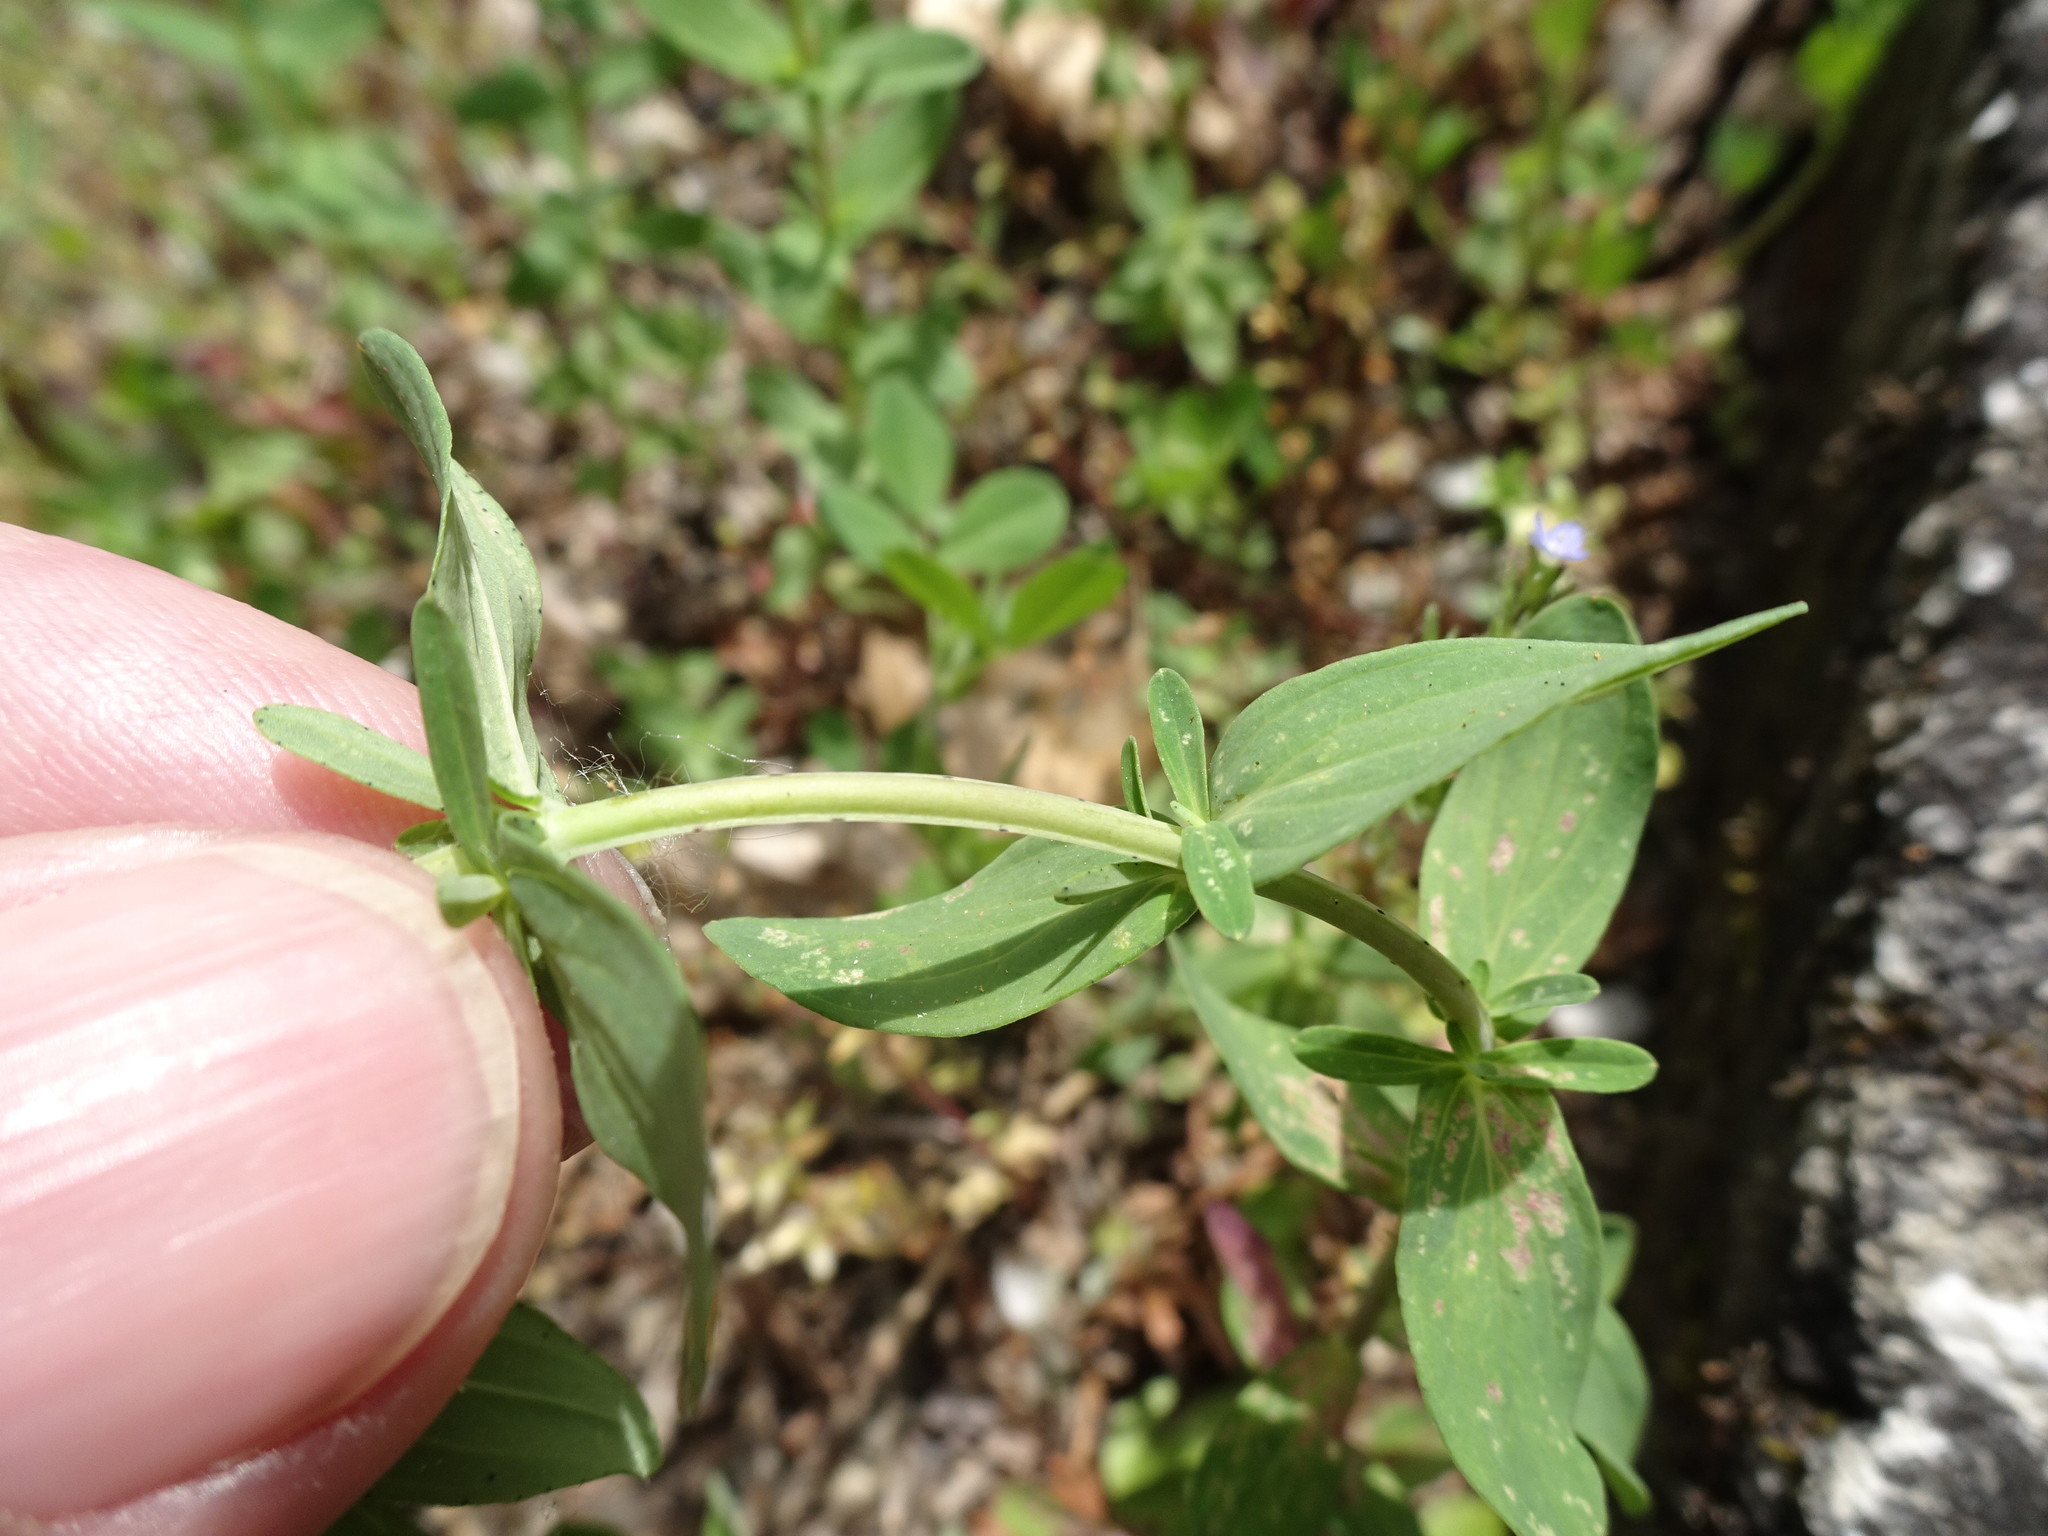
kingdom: Plantae
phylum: Tracheophyta
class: Magnoliopsida
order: Malpighiales
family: Hypericaceae
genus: Hypericum
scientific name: Hypericum perforatum
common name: Common st. johnswort
